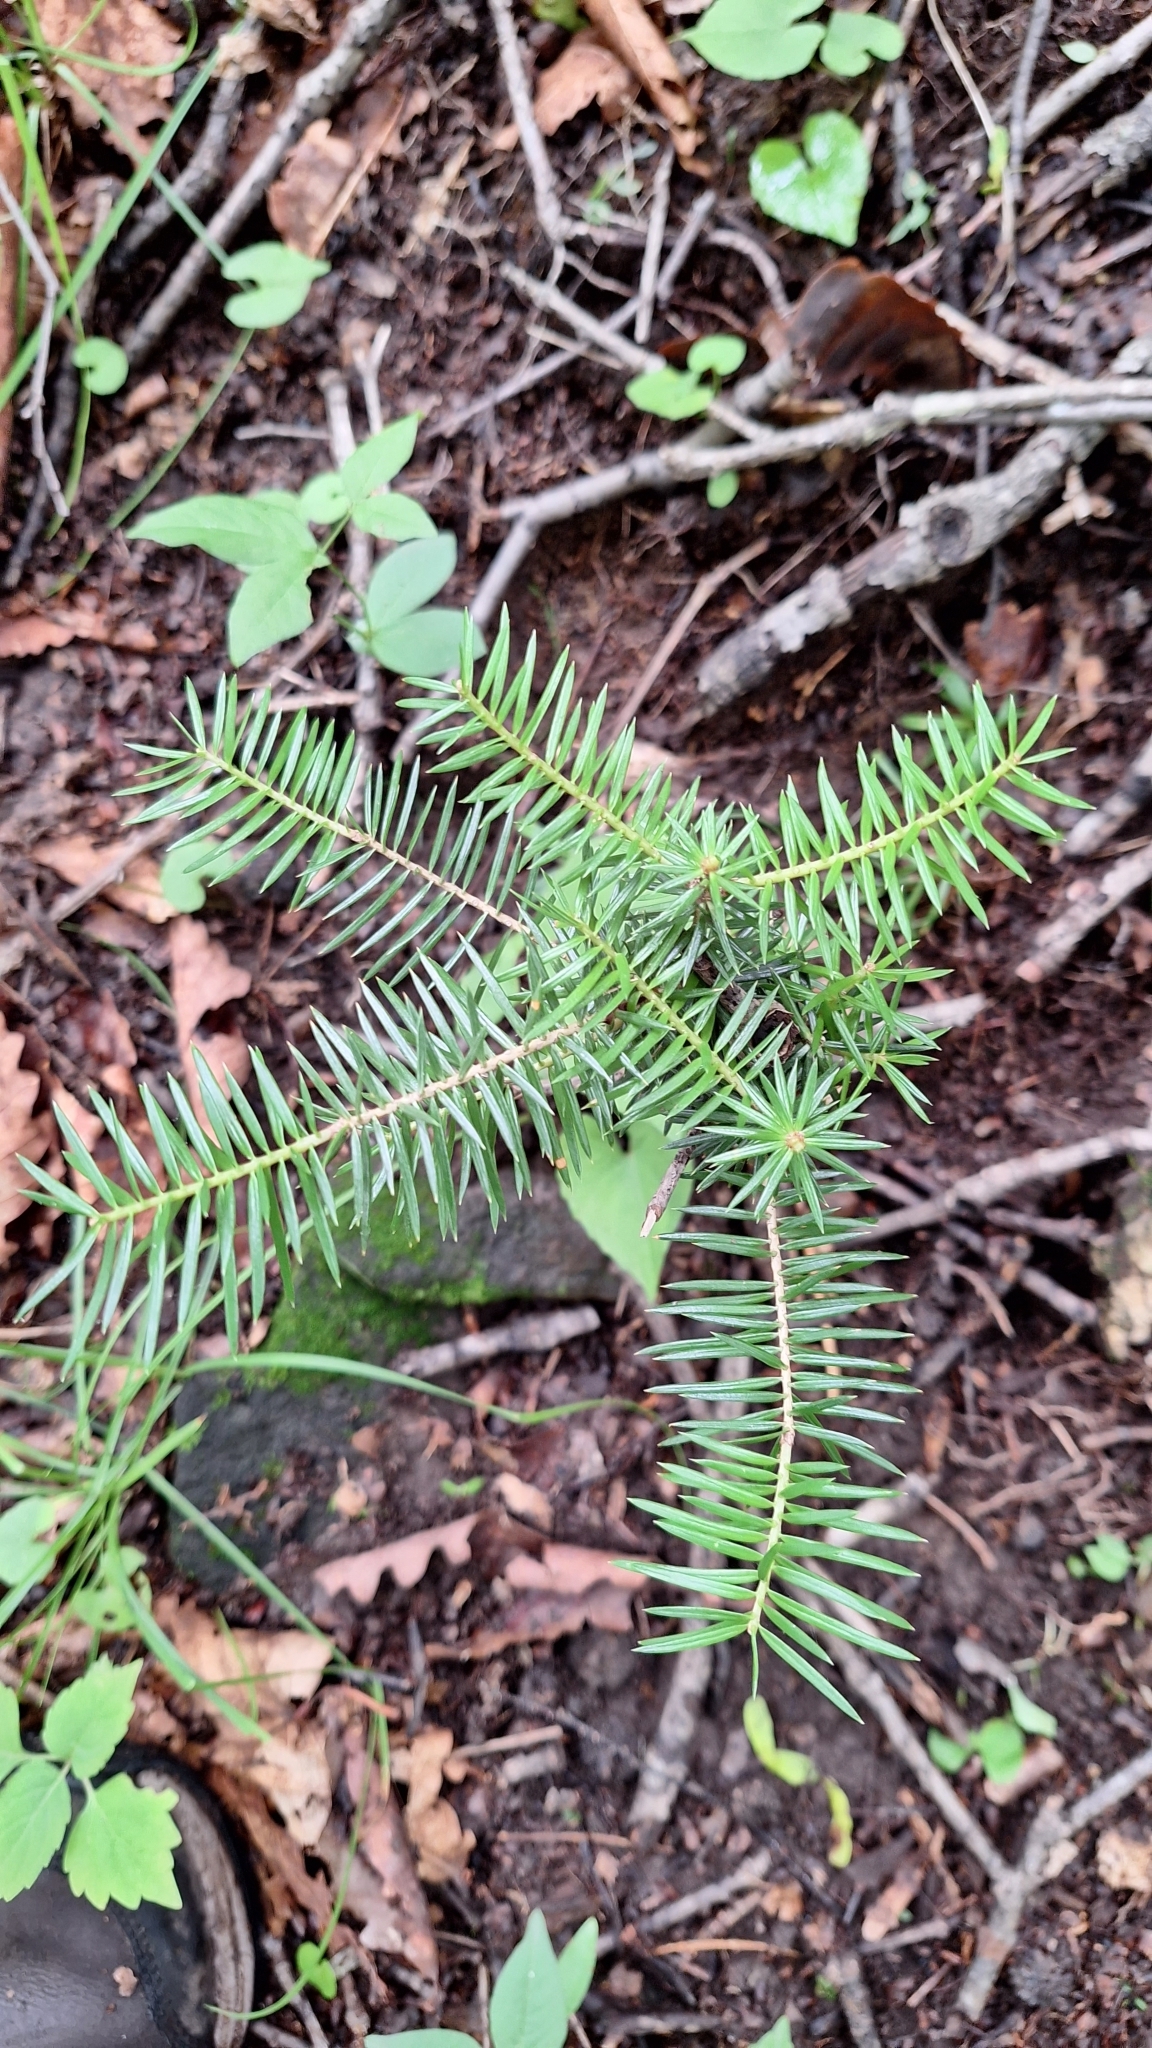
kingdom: Plantae
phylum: Tracheophyta
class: Pinopsida
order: Pinales
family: Pinaceae
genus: Abies
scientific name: Abies holophylla
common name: Manchurian fir
